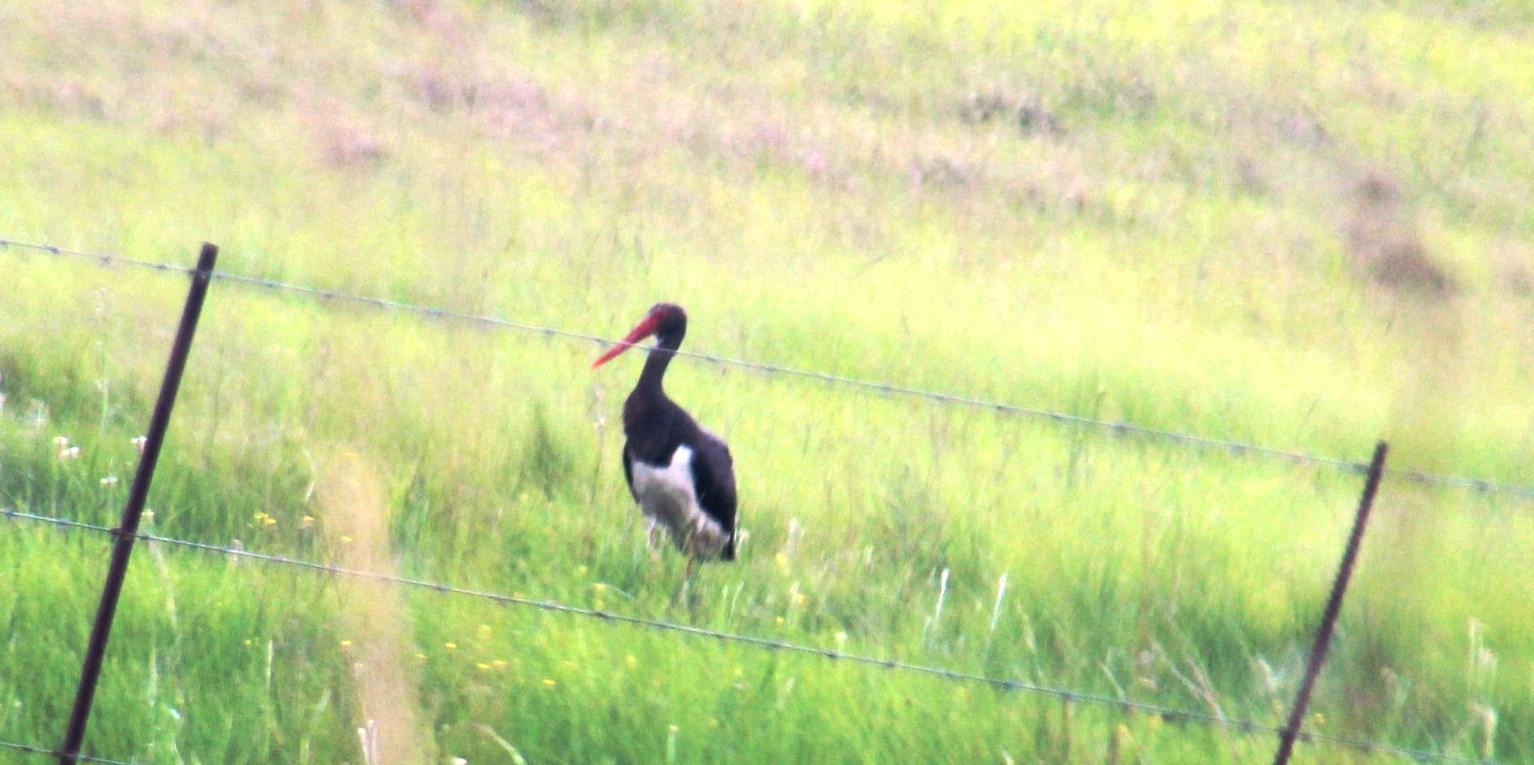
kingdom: Animalia
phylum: Chordata
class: Aves
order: Ciconiiformes
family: Ciconiidae
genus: Ciconia
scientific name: Ciconia nigra
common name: Black stork
